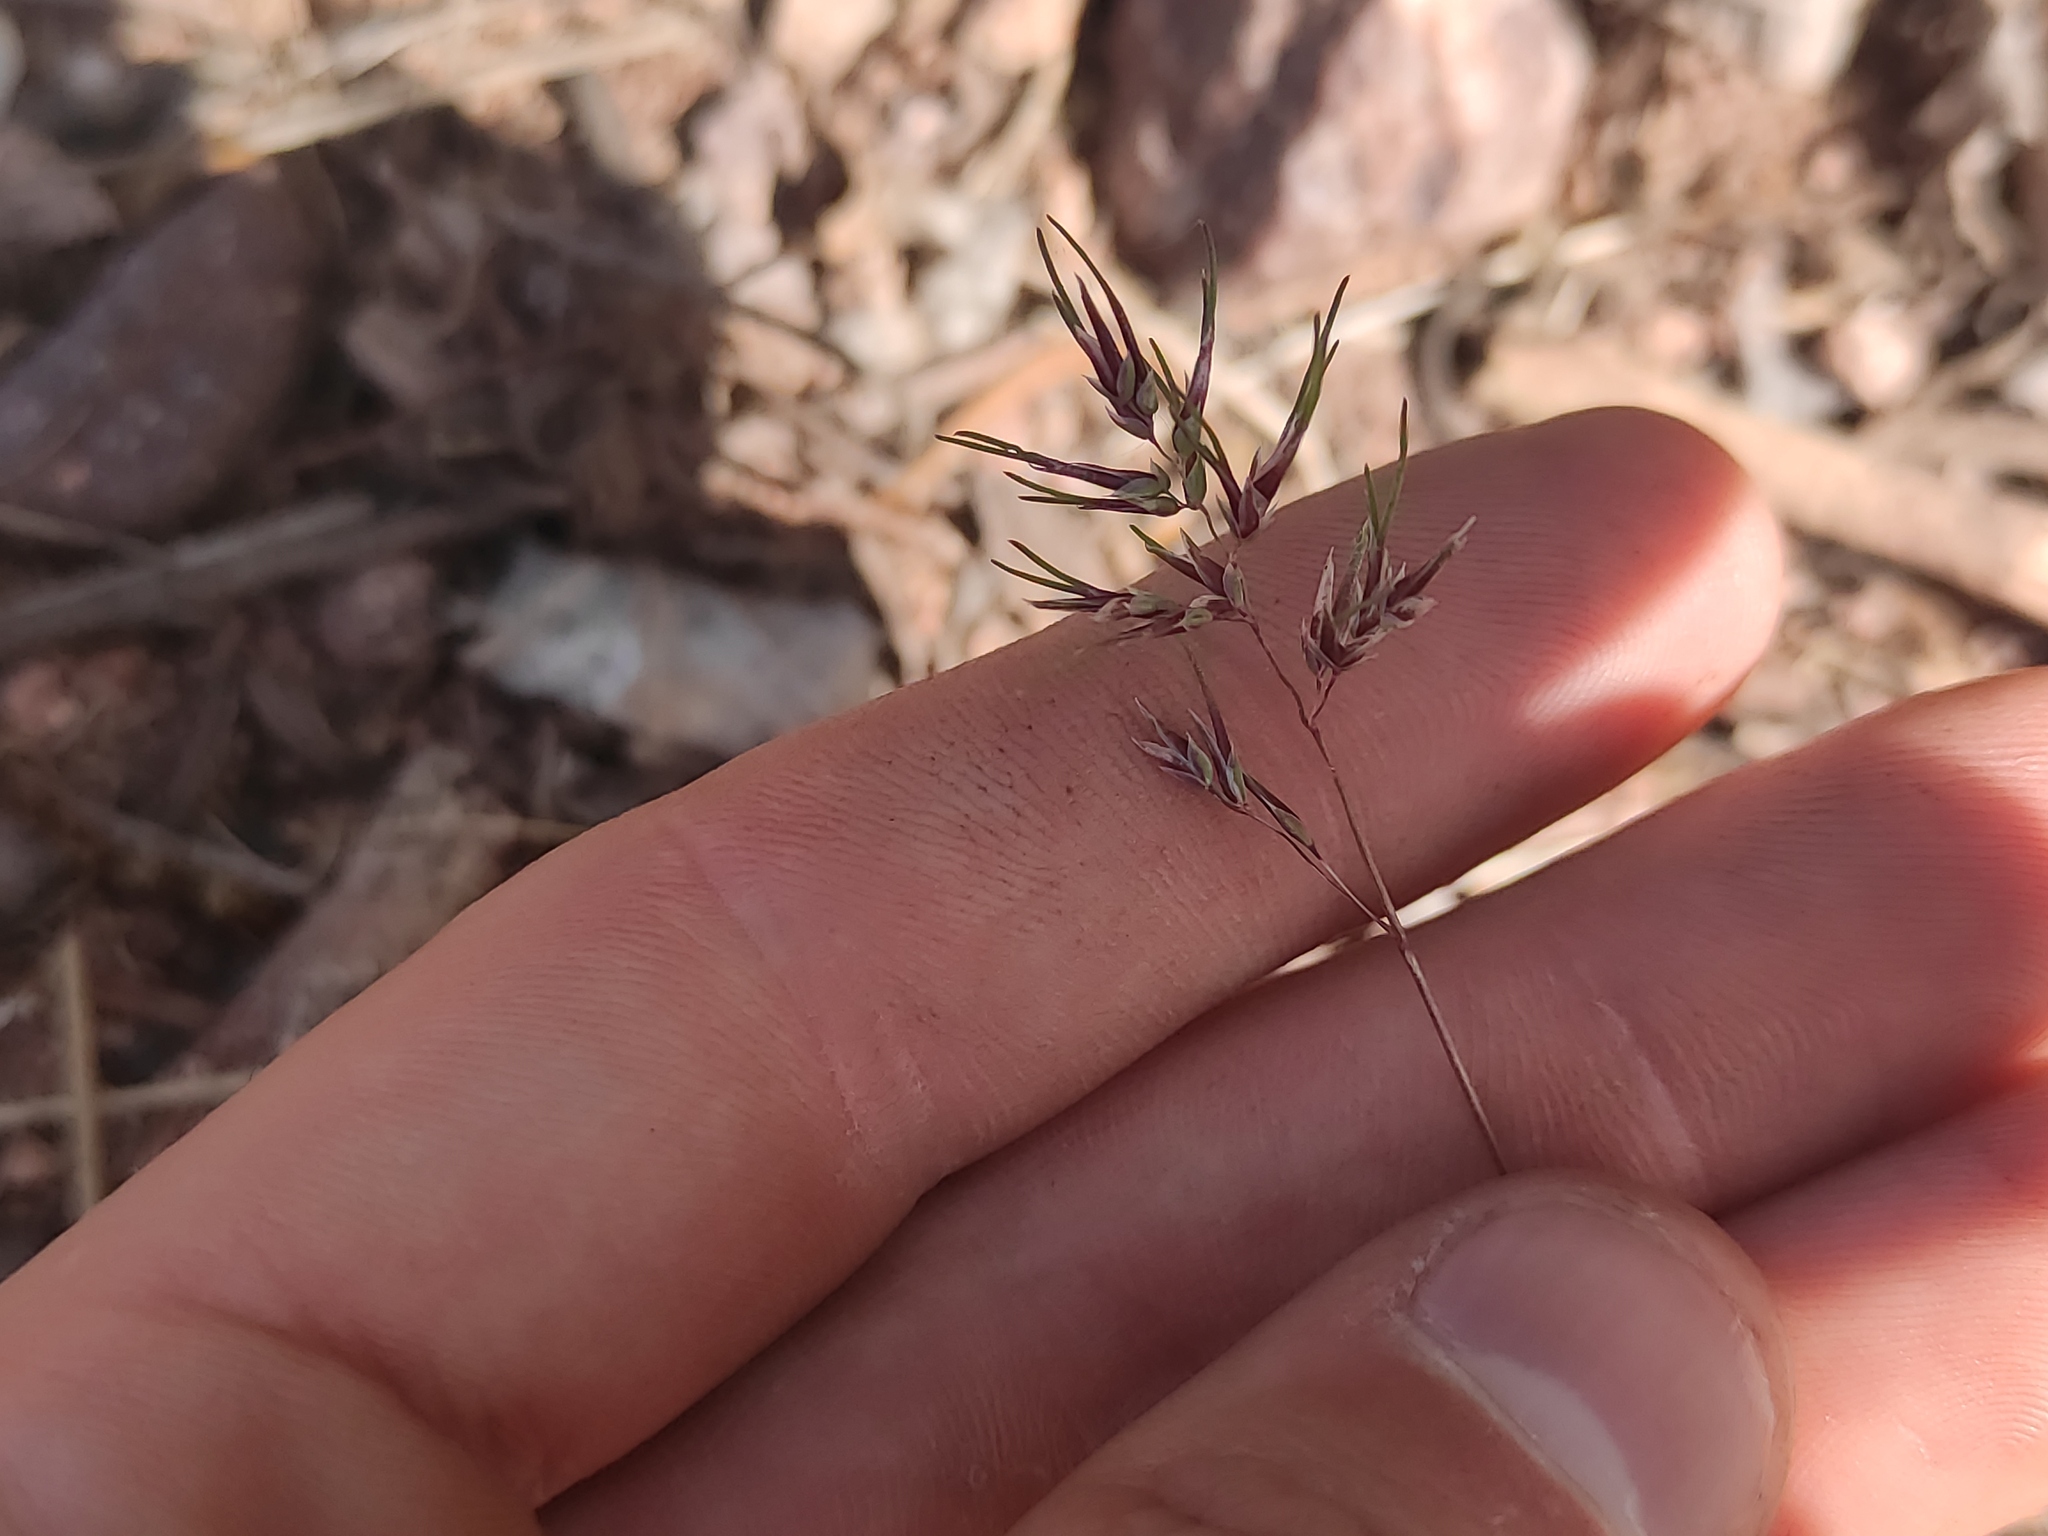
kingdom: Plantae
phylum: Tracheophyta
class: Liliopsida
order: Poales
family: Poaceae
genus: Poa
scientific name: Poa bulbosa
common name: Bulbous bluegrass
